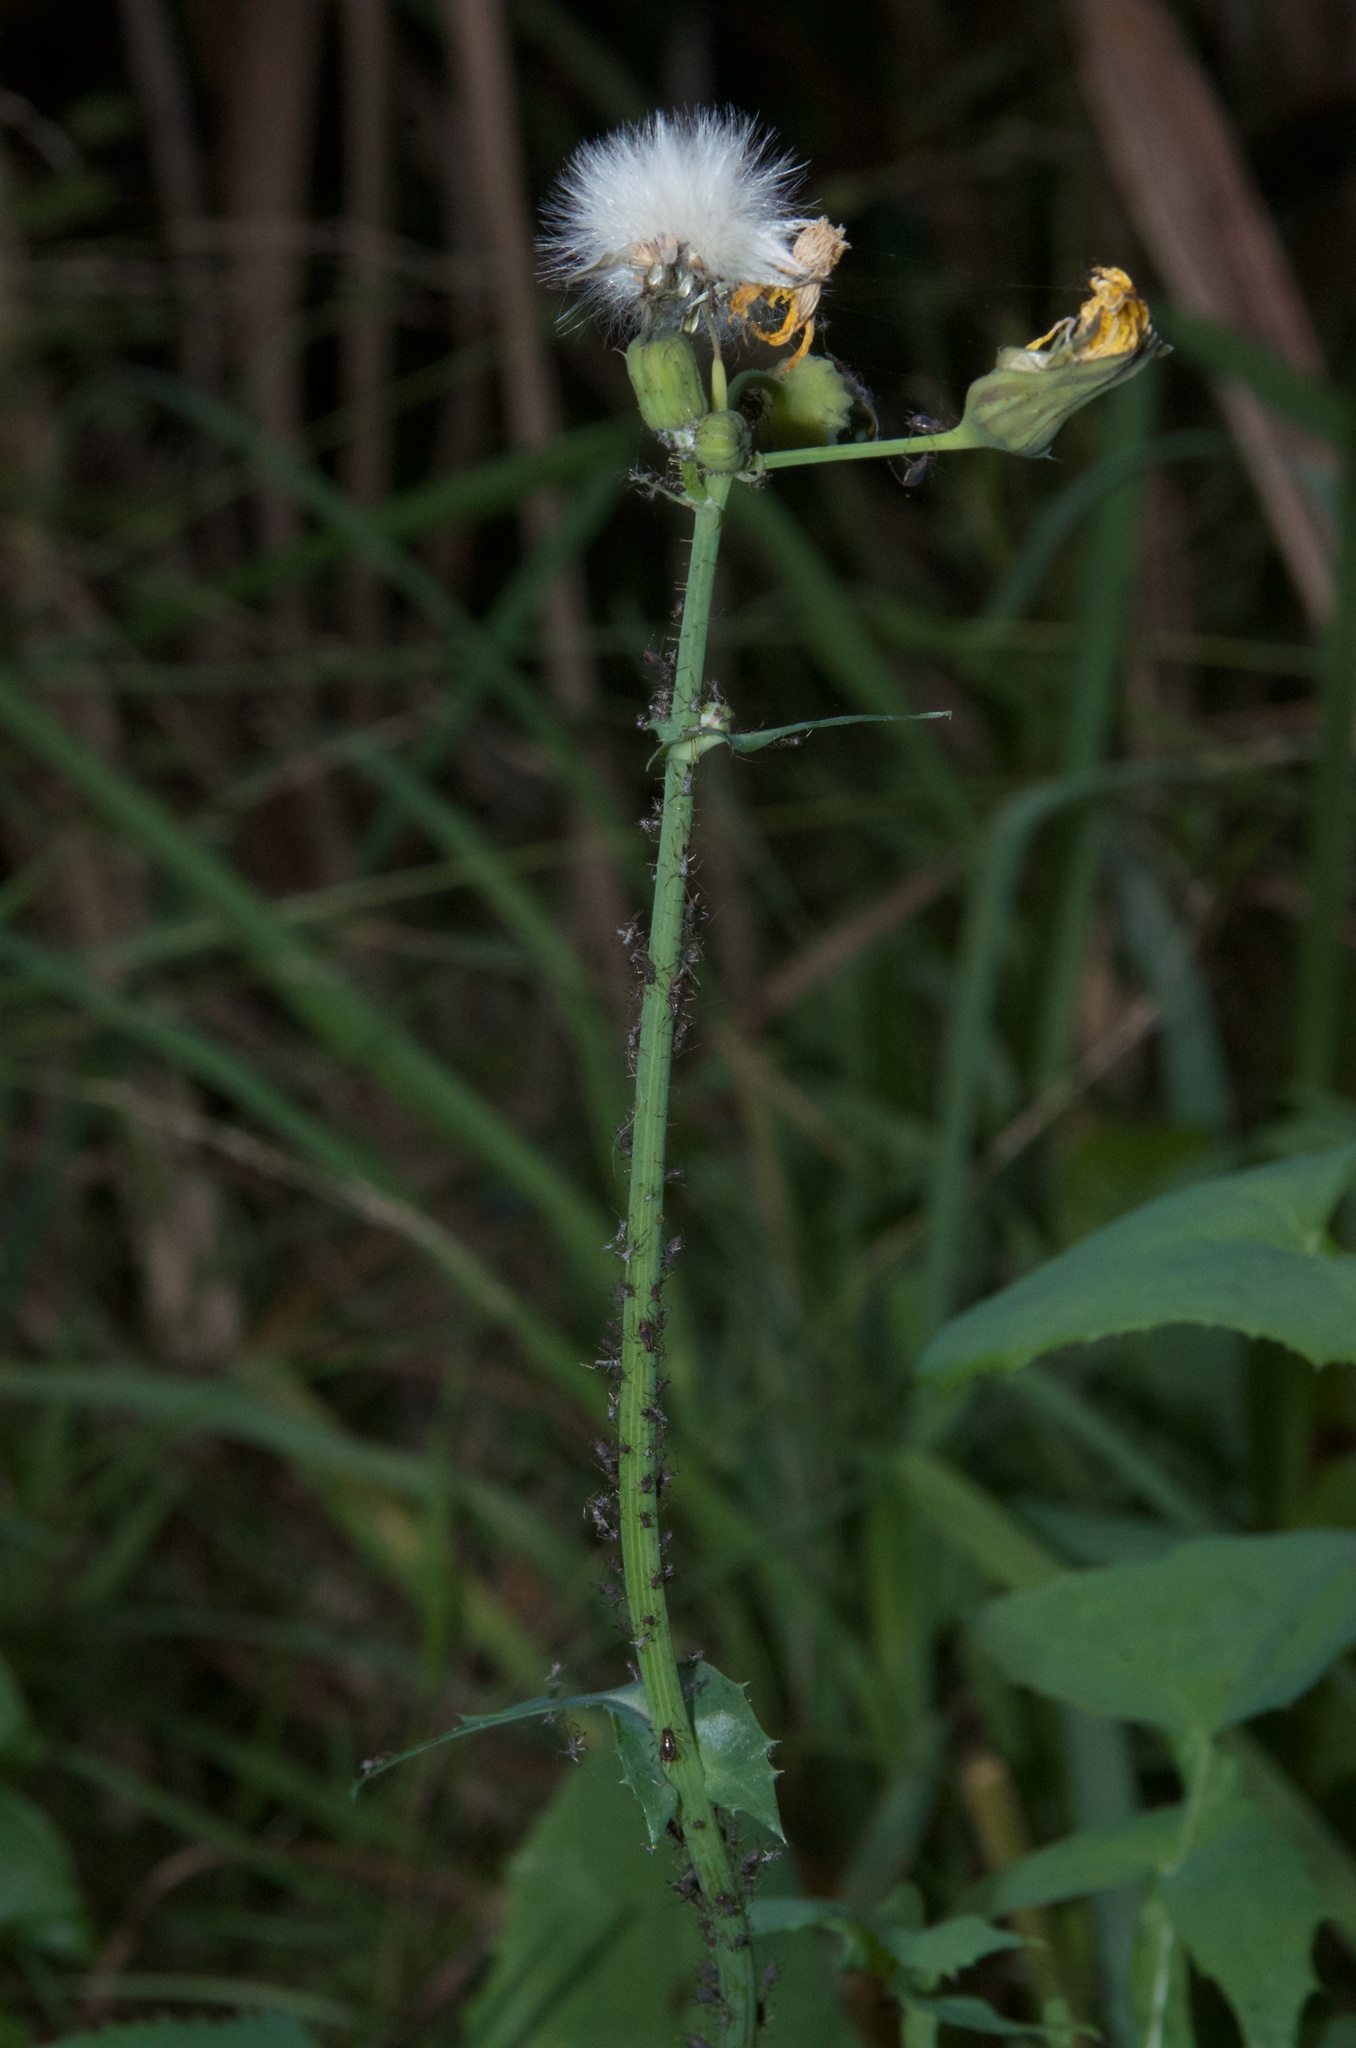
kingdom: Plantae
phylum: Tracheophyta
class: Magnoliopsida
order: Asterales
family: Asteraceae
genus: Sonchus
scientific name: Sonchus oleraceus
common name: Common sowthistle
